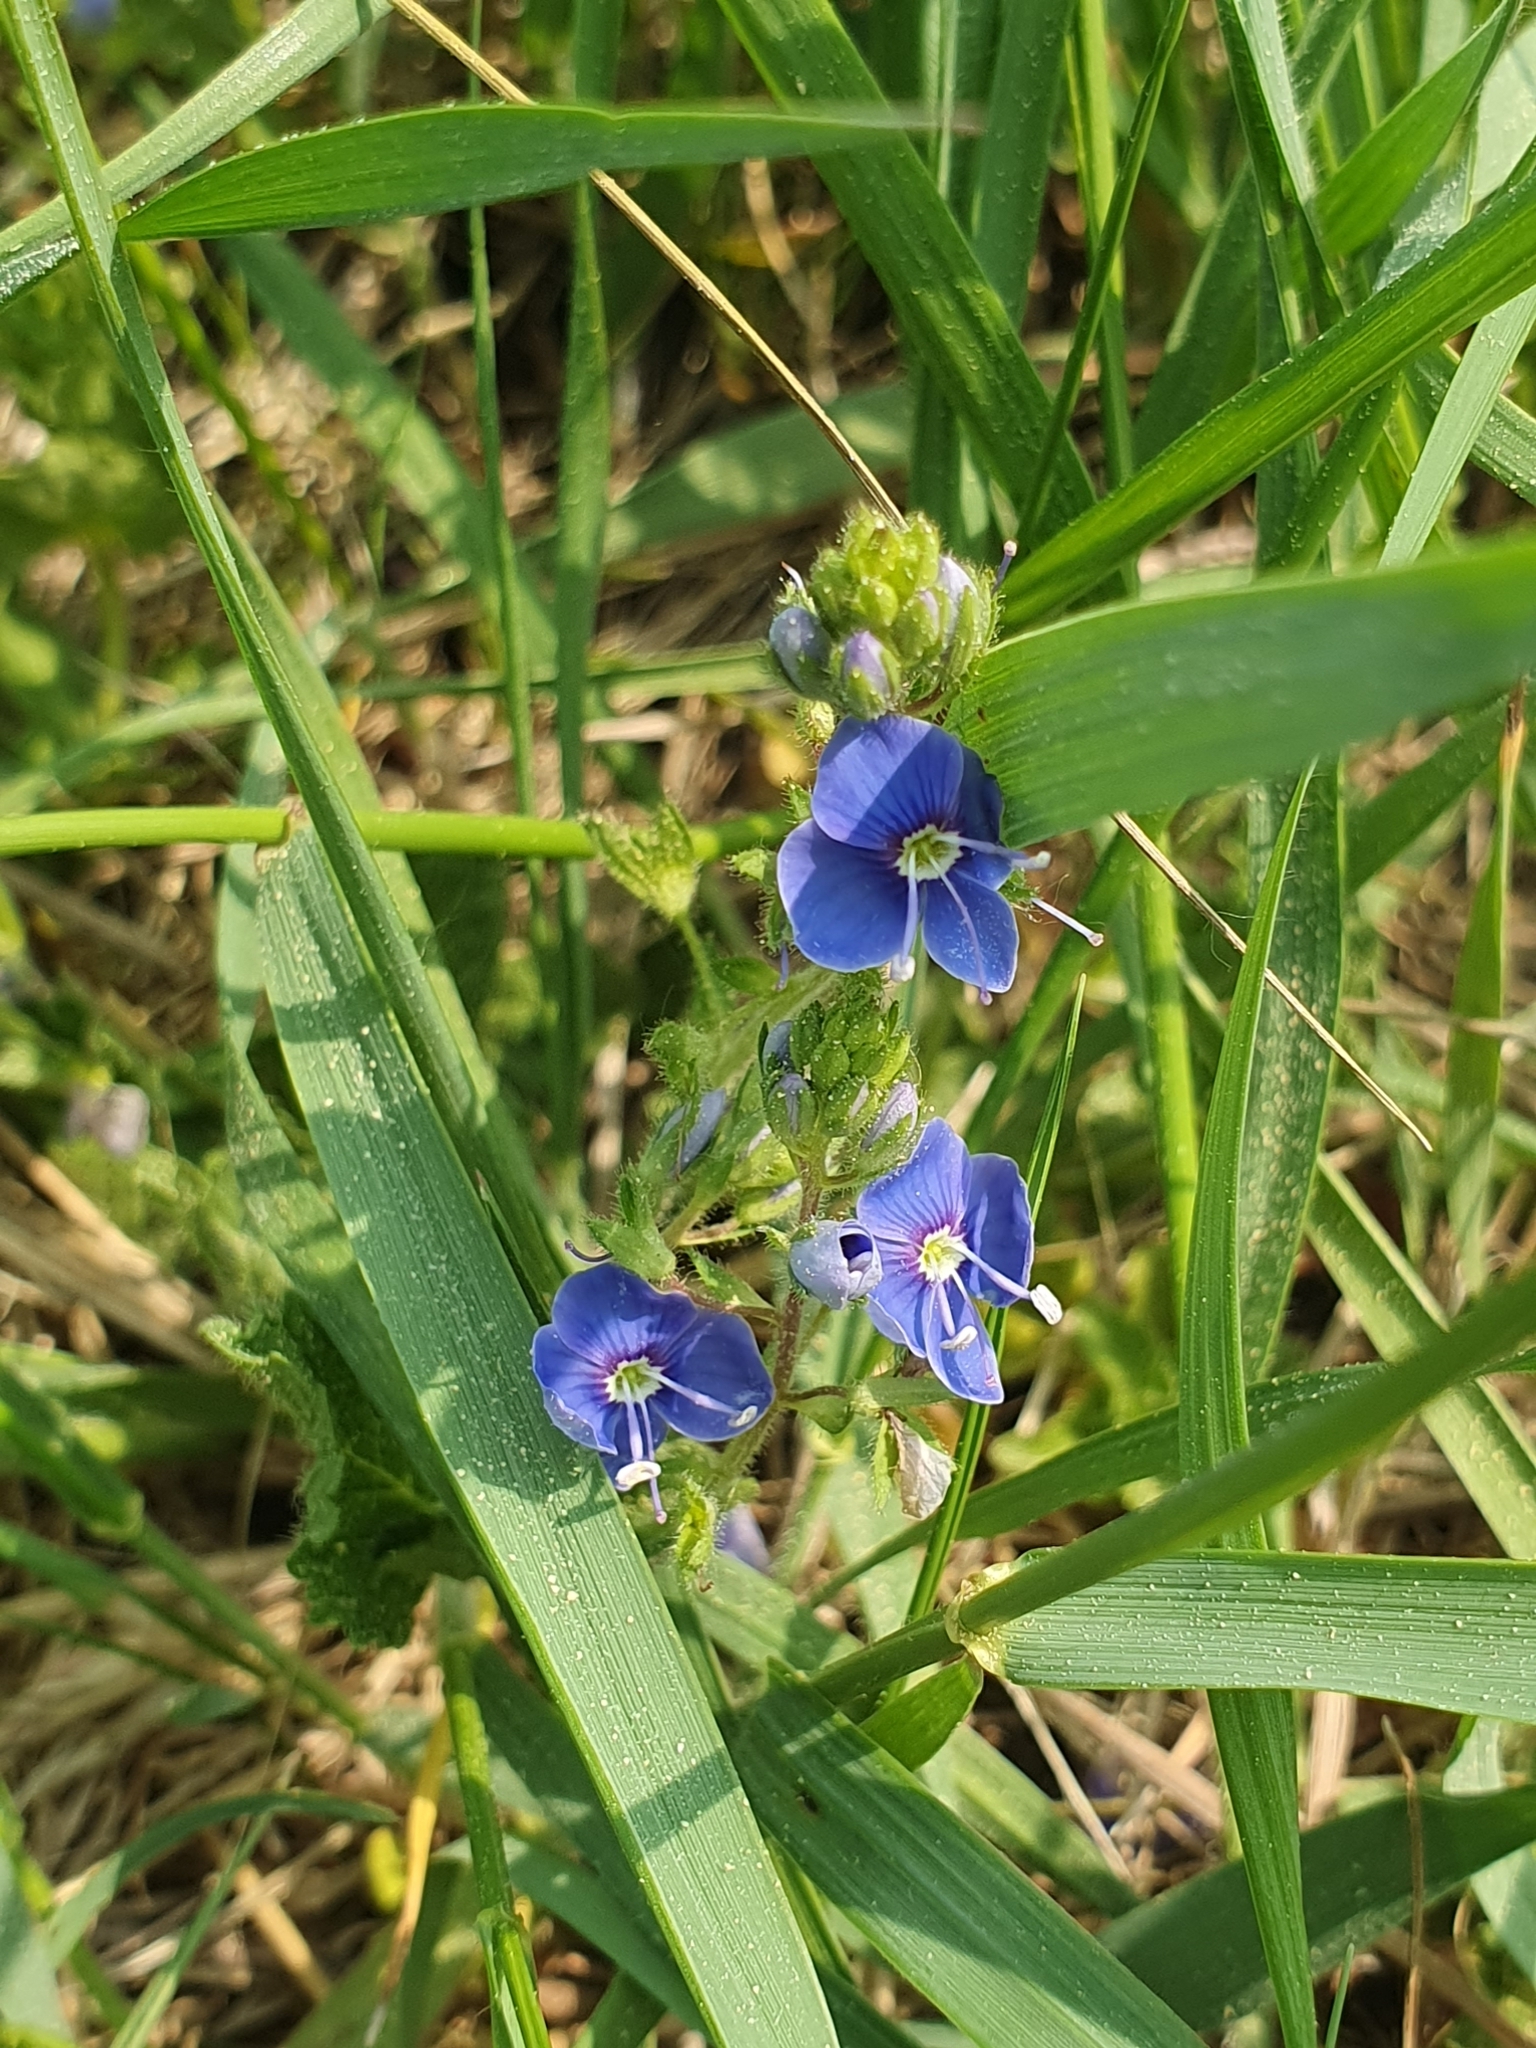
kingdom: Plantae
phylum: Tracheophyta
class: Magnoliopsida
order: Lamiales
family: Plantaginaceae
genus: Veronica
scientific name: Veronica chamaedrys
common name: Germander speedwell
